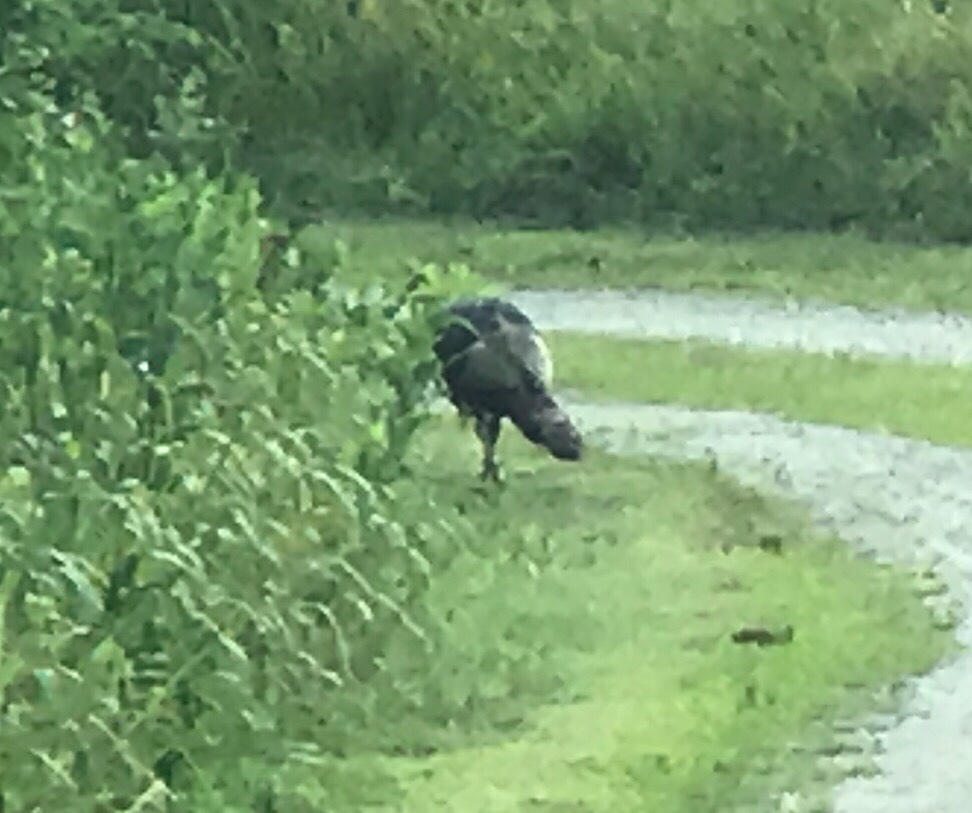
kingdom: Animalia
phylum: Chordata
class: Aves
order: Galliformes
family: Phasianidae
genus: Meleagris
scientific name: Meleagris gallopavo
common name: Wild turkey
